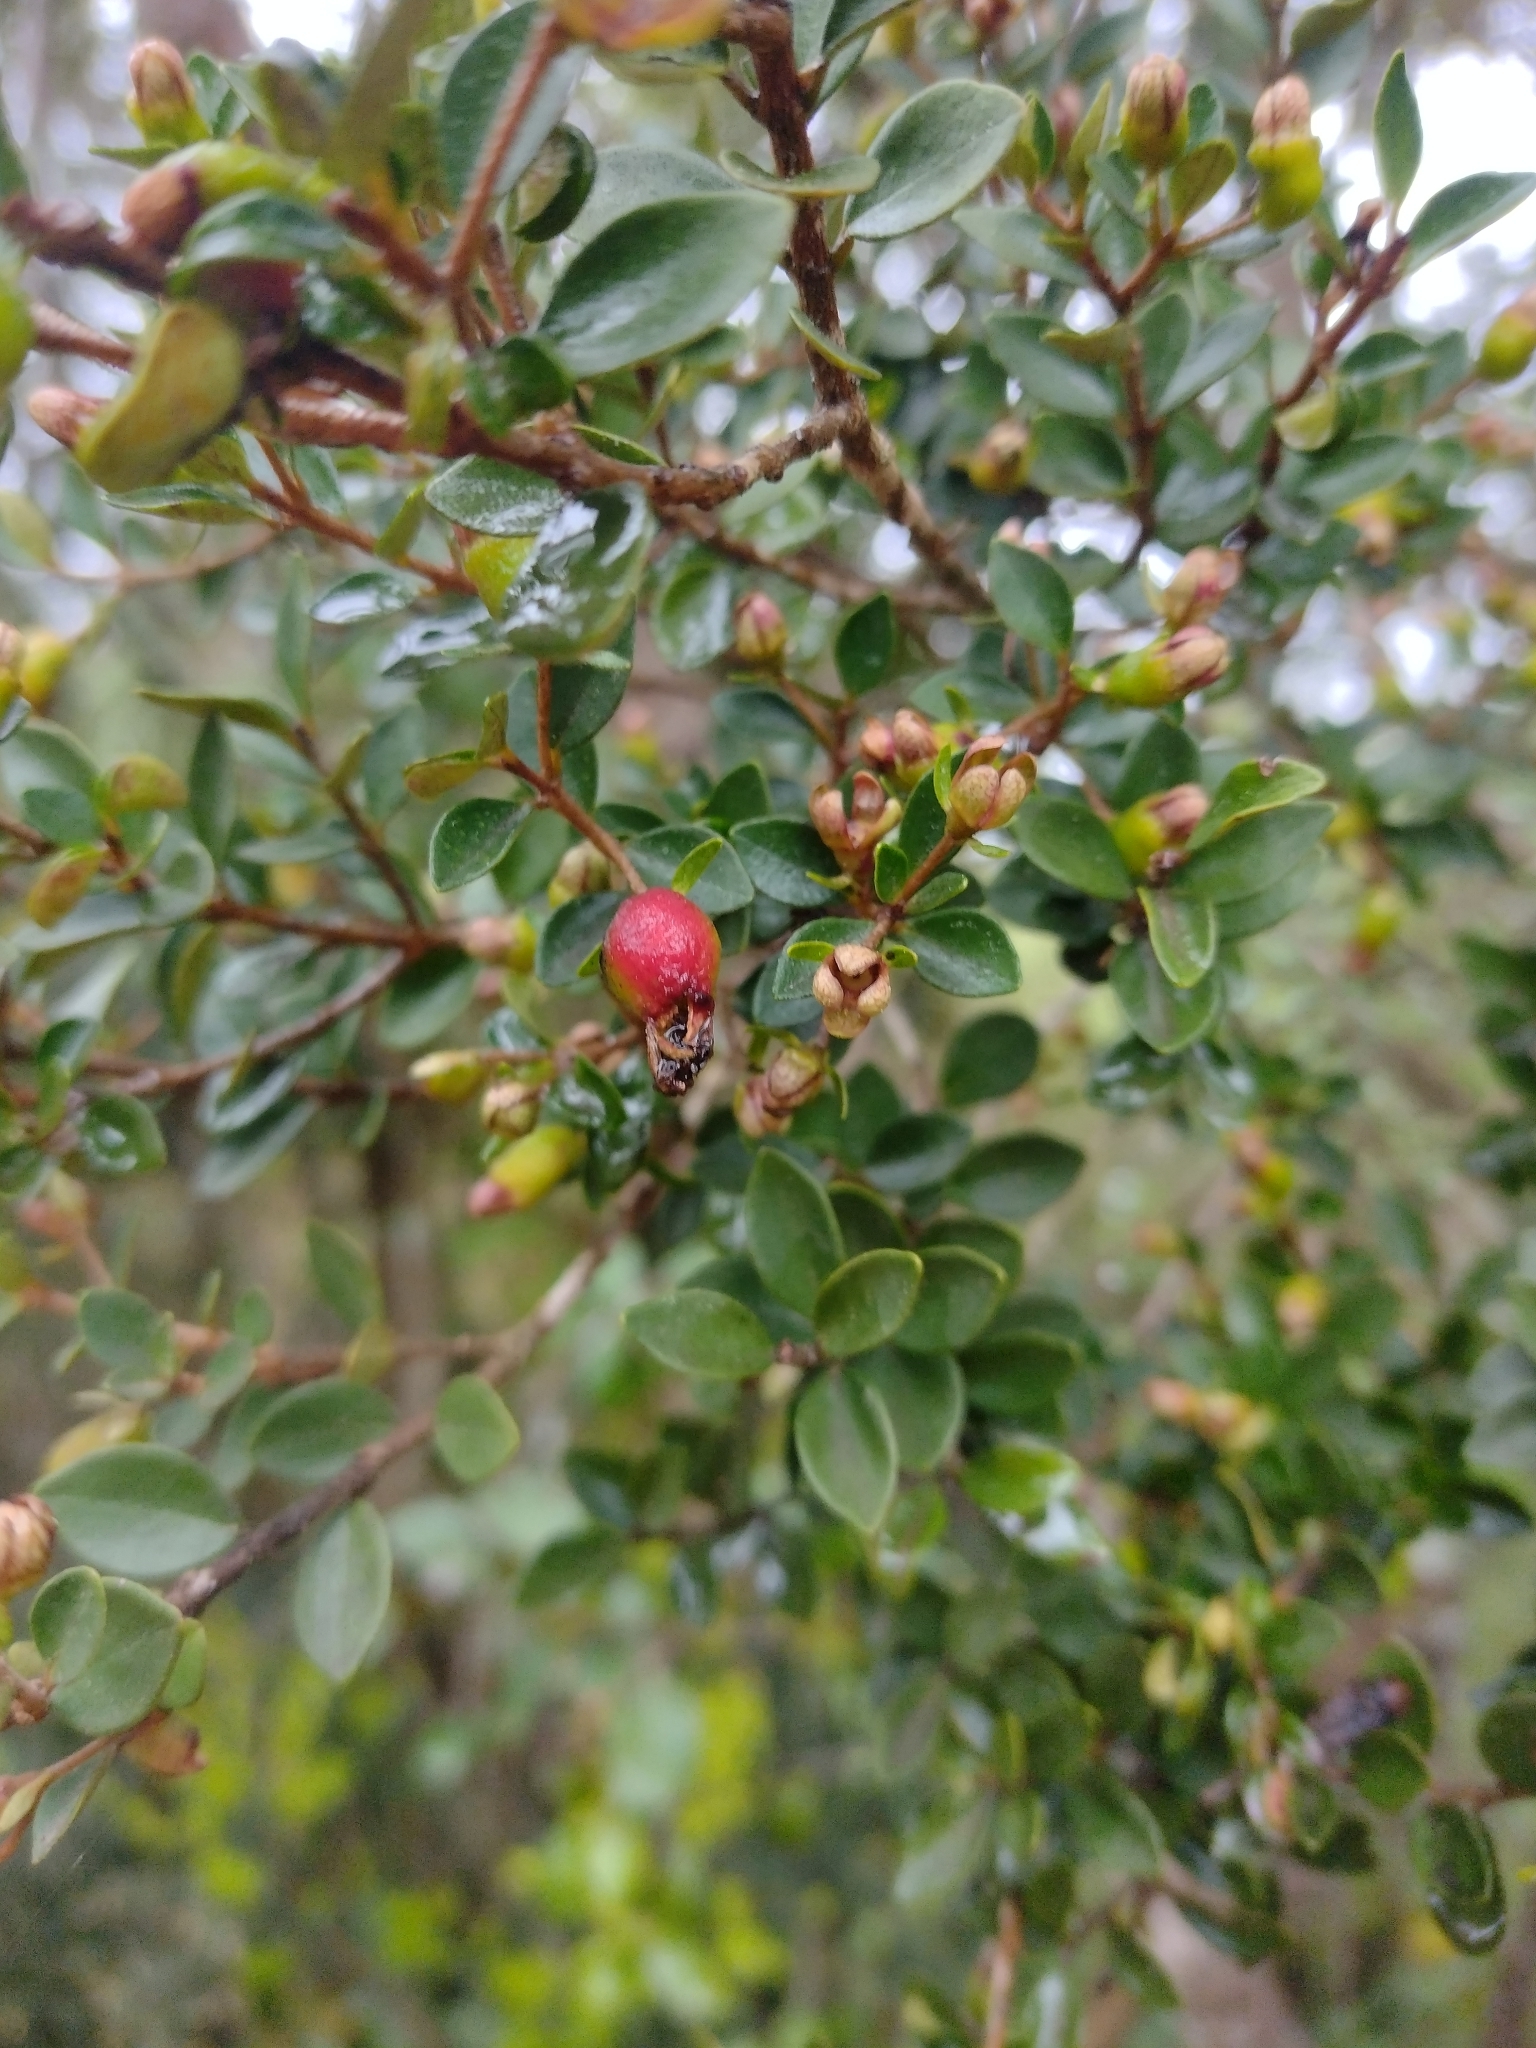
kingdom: Plantae
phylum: Tracheophyta
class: Magnoliopsida
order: Myrtales
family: Myrtaceae
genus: Myrceugenia
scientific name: Myrceugenia obtusa
